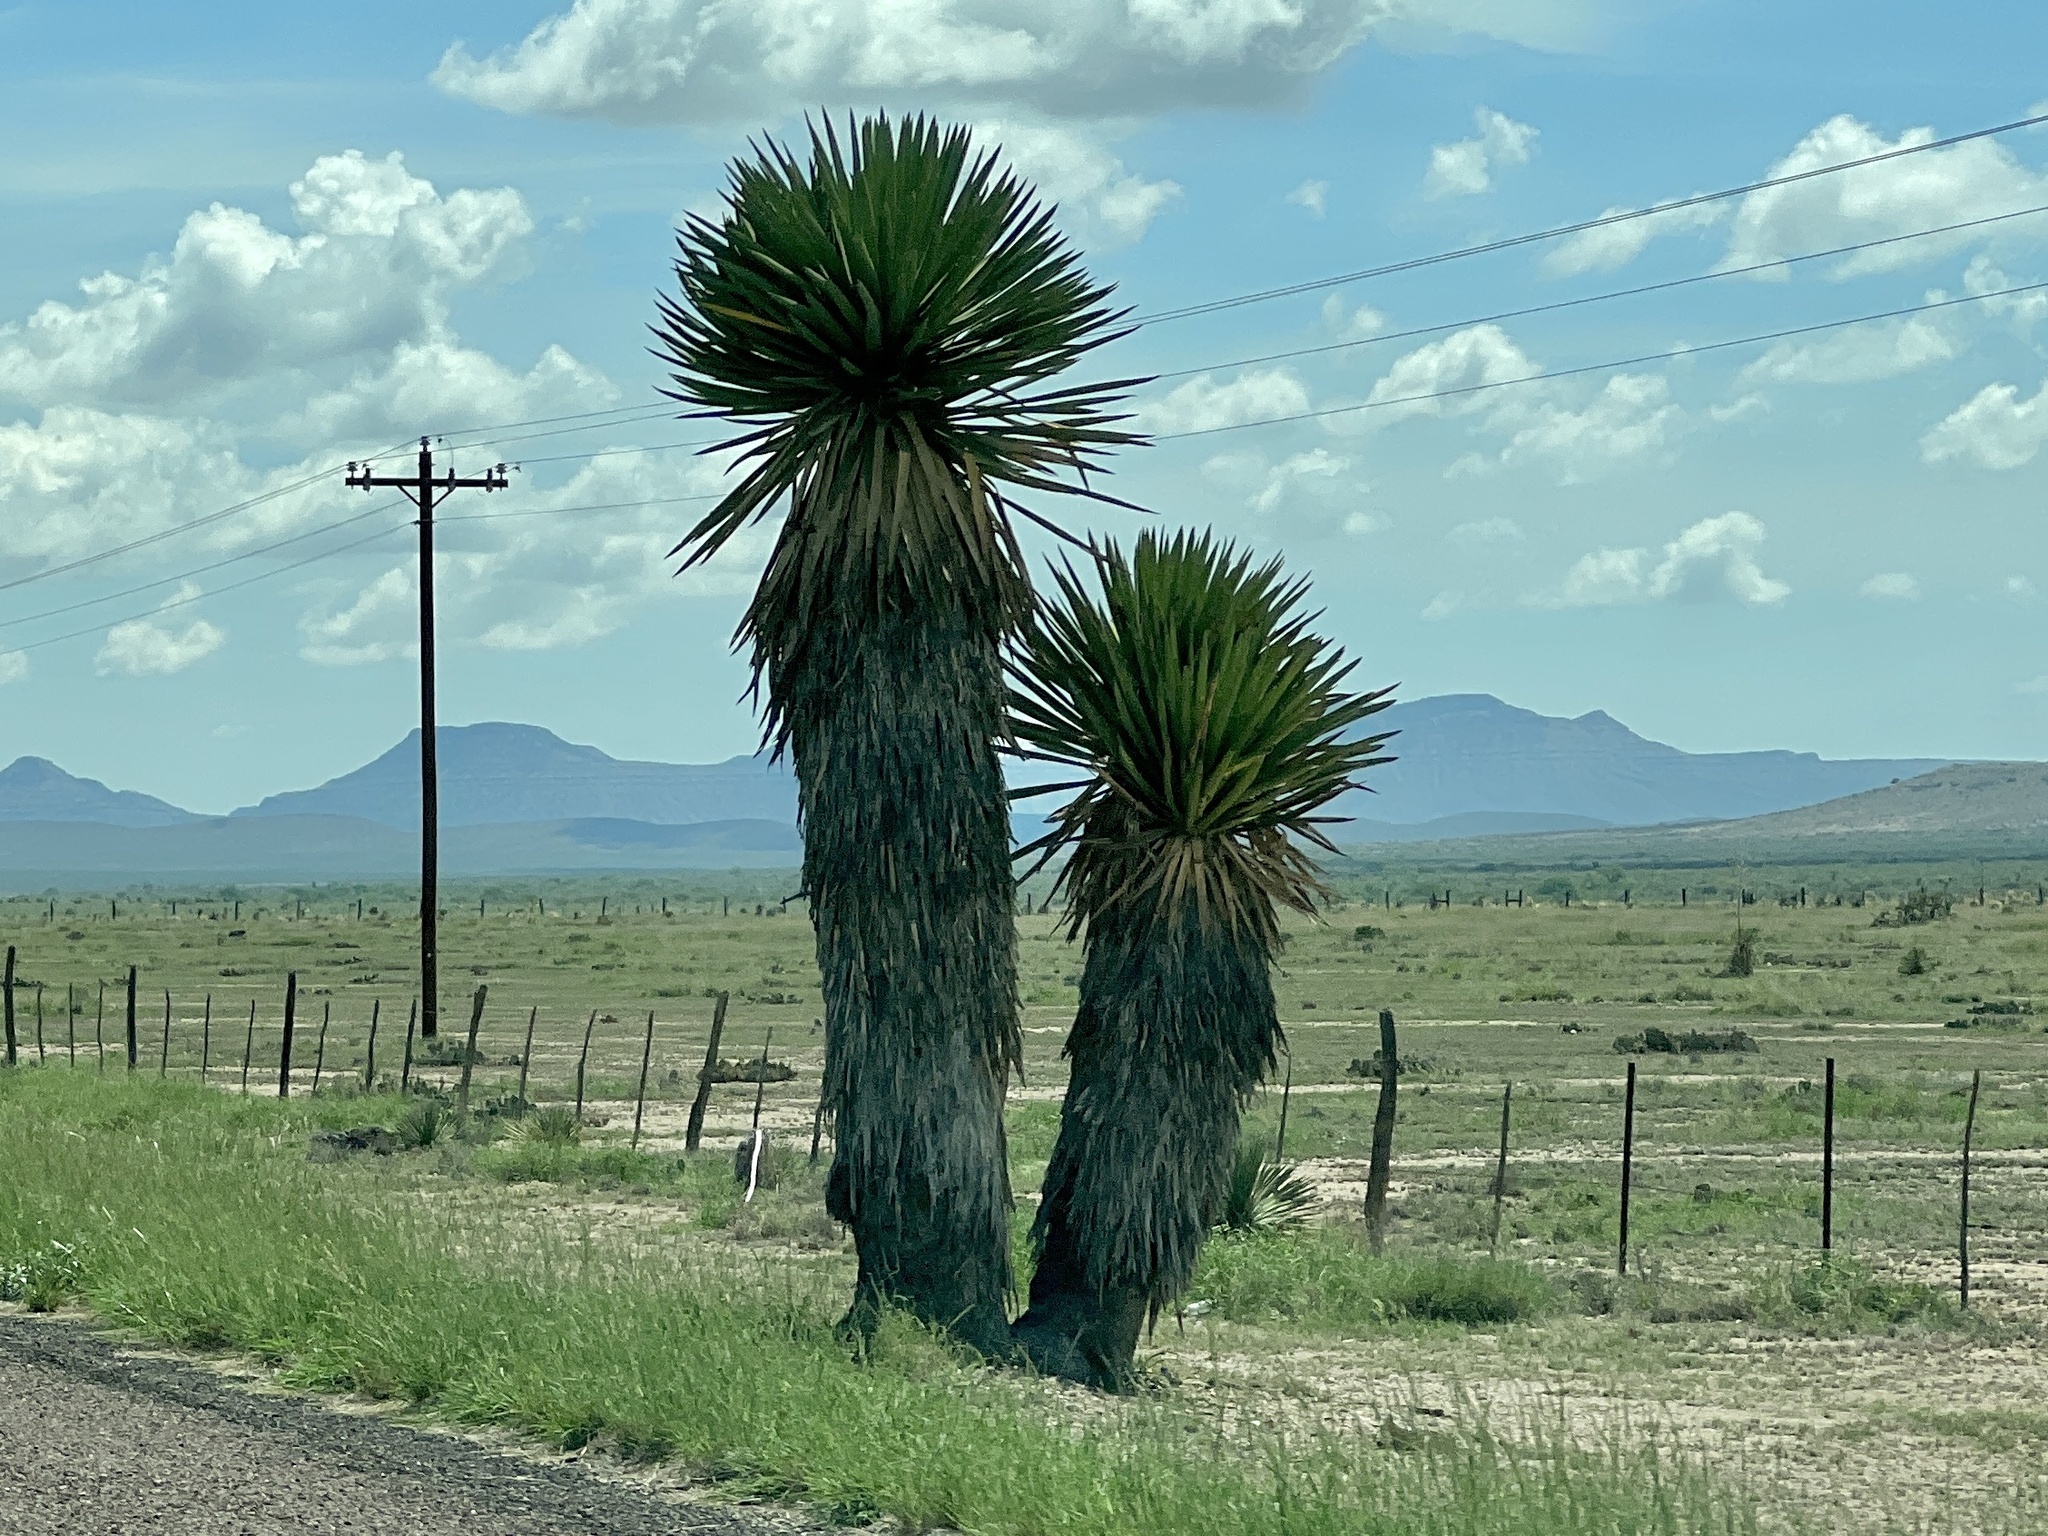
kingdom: Plantae
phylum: Tracheophyta
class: Liliopsida
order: Asparagales
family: Asparagaceae
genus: Yucca
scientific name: Yucca faxoniana
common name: Spanish dagger
